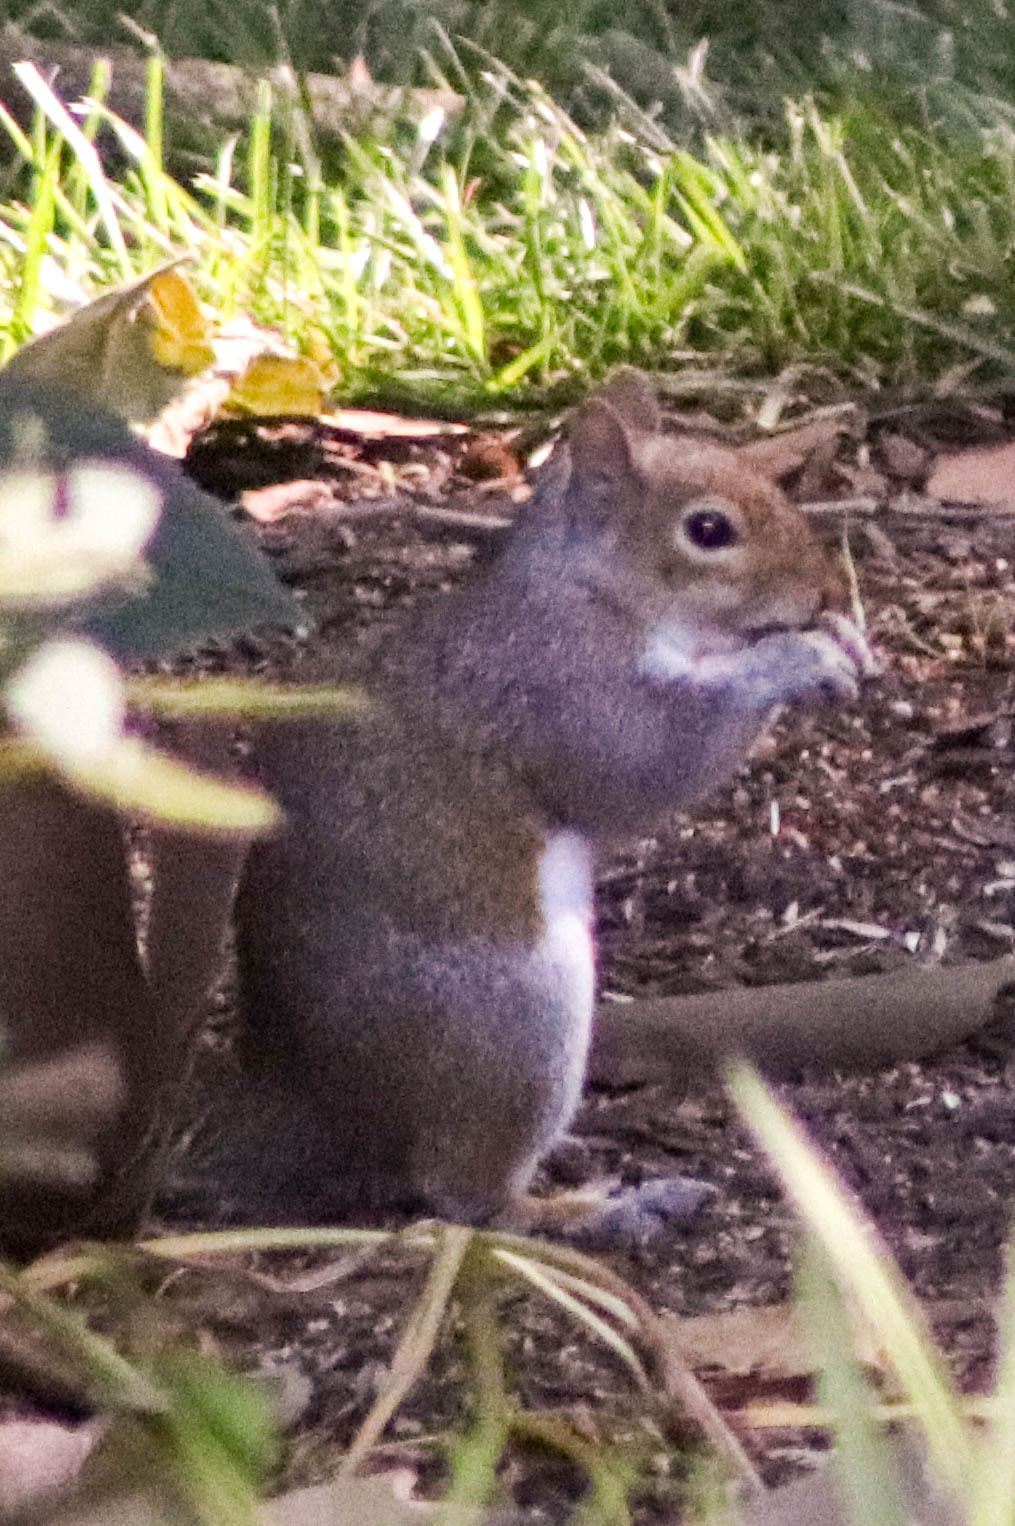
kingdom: Animalia
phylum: Chordata
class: Mammalia
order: Rodentia
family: Sciuridae
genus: Sciurus
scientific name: Sciurus carolinensis
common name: Eastern gray squirrel
